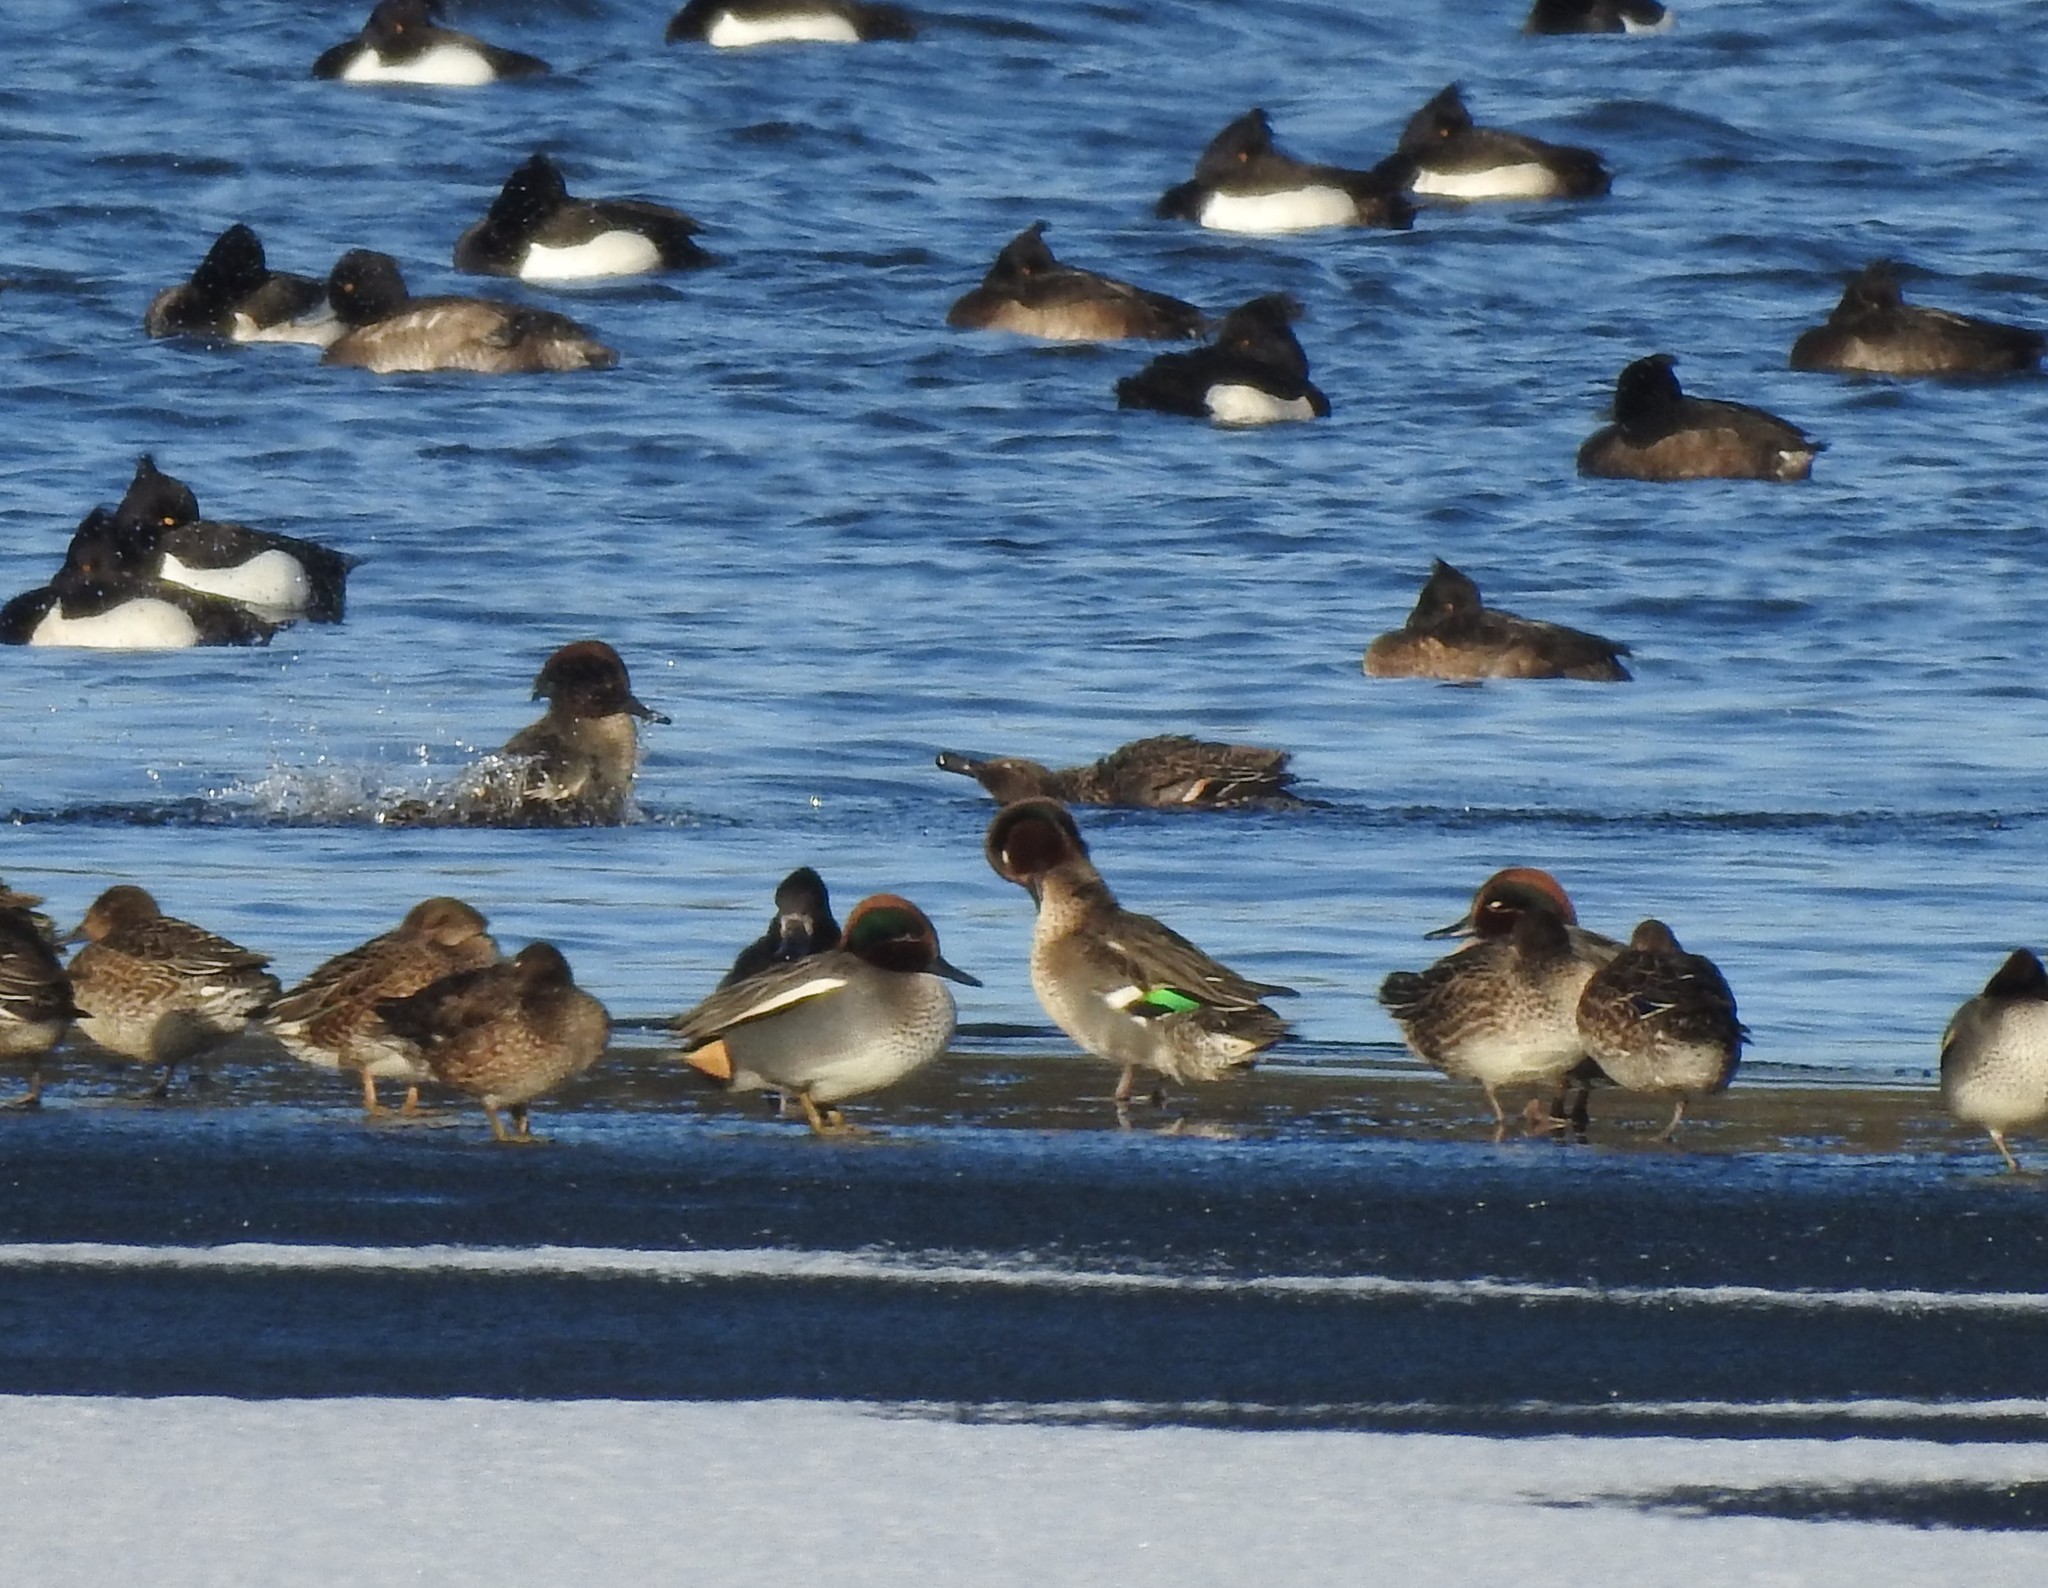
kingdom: Animalia
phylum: Chordata
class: Aves
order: Anseriformes
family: Anatidae
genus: Anas
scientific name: Anas crecca
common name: Eurasian teal
